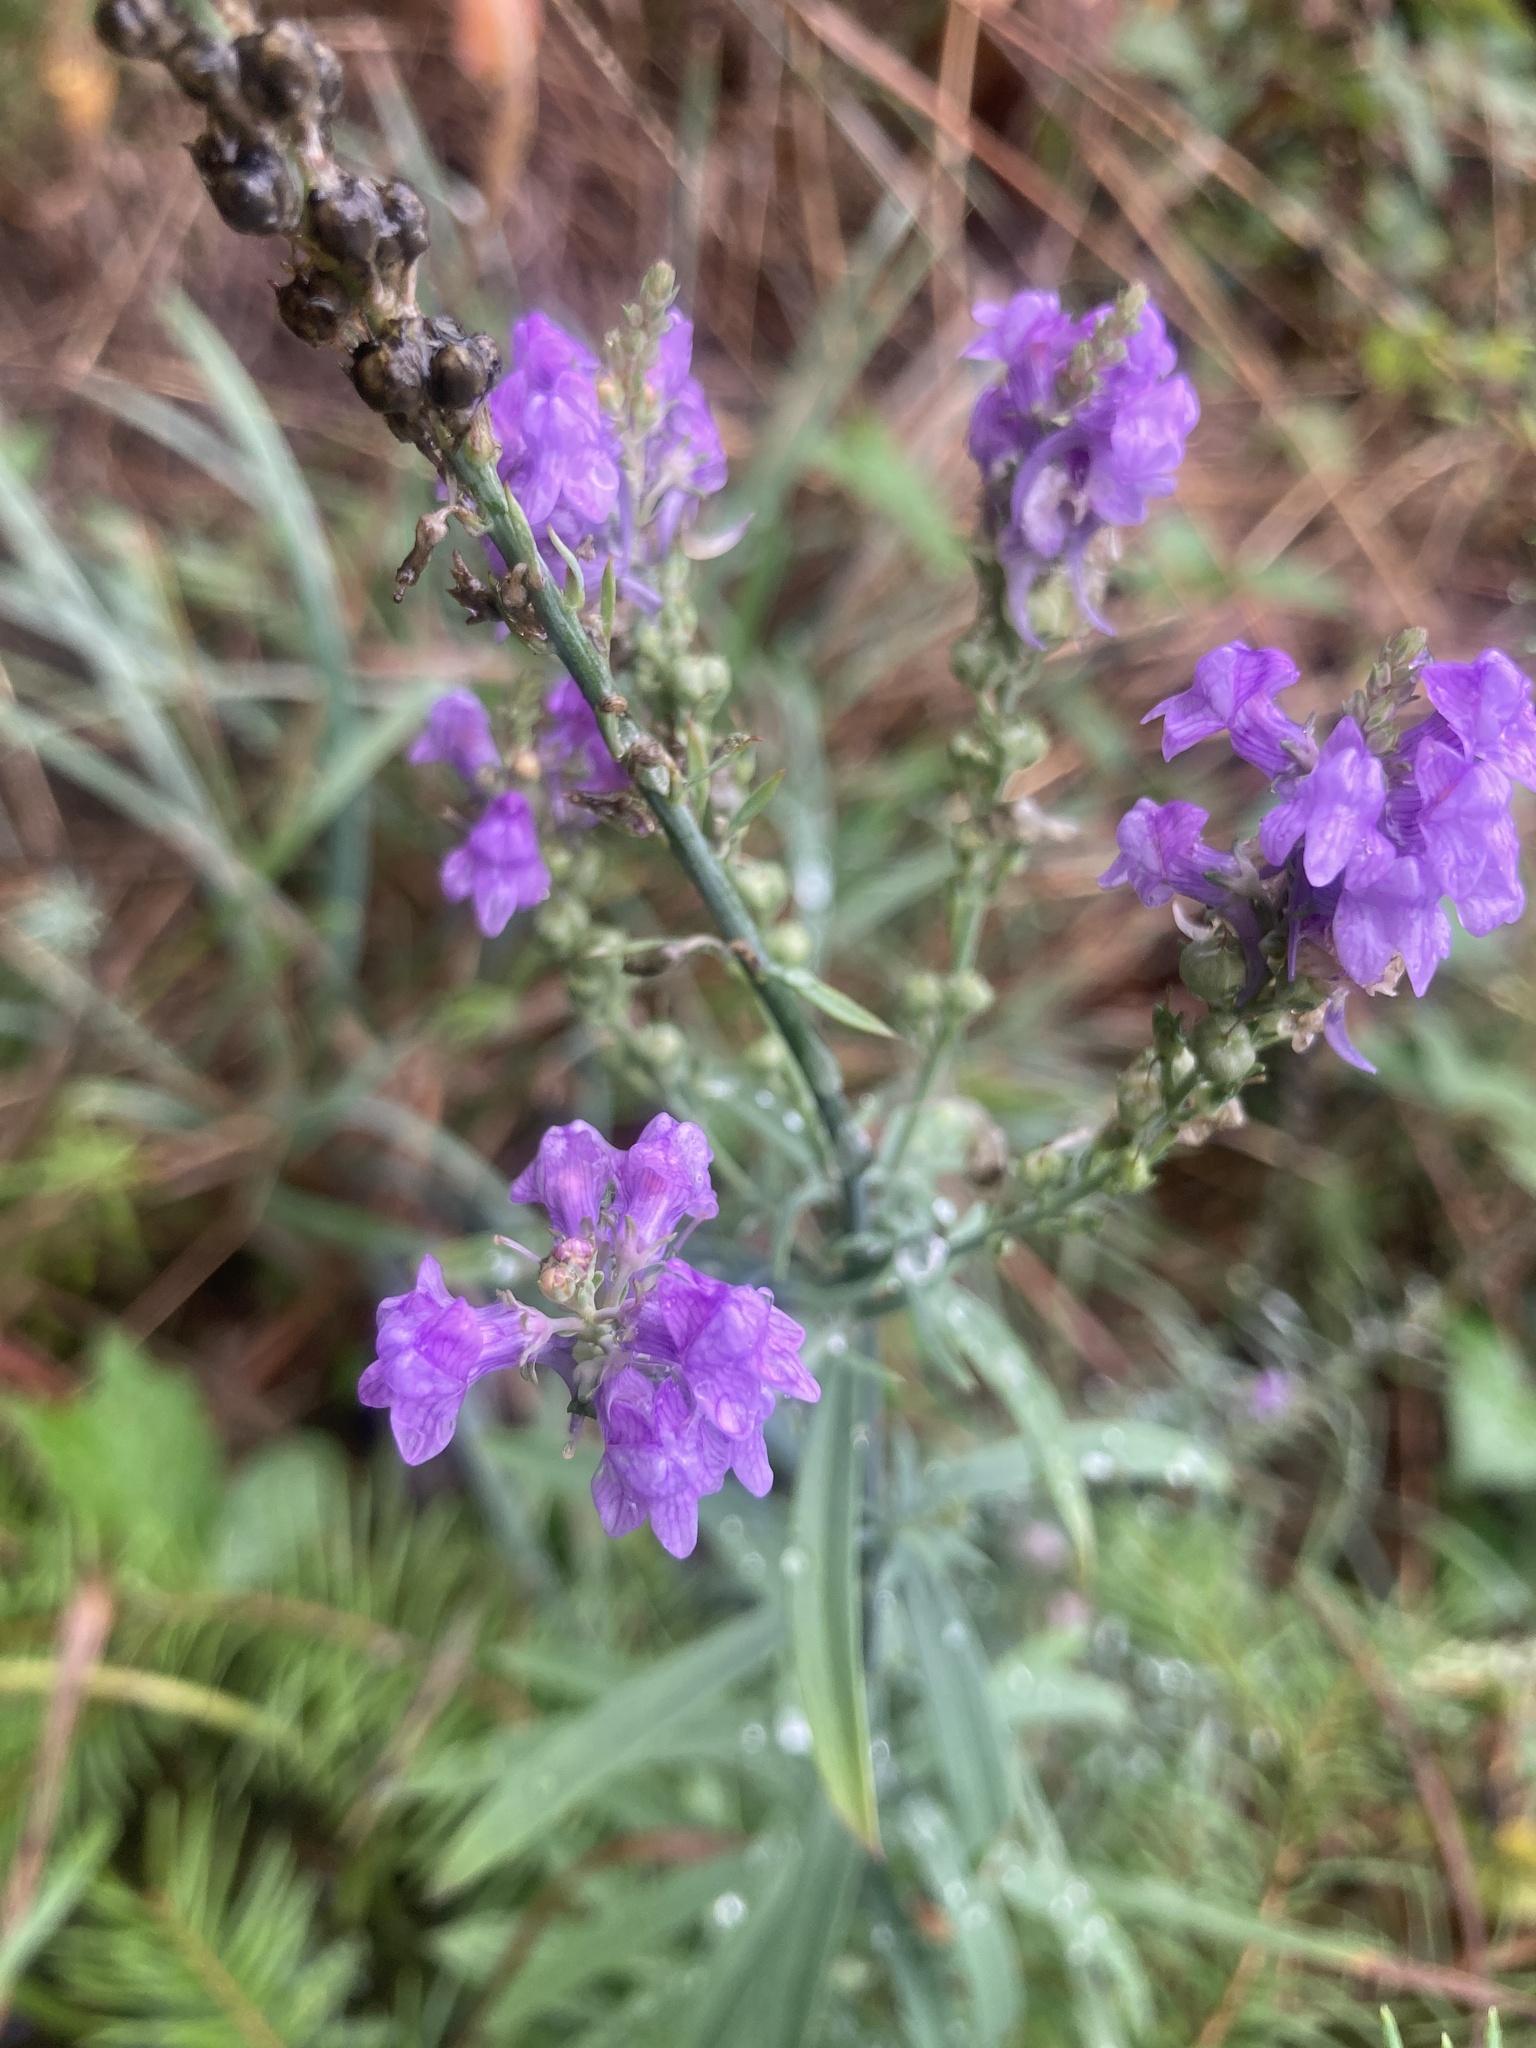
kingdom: Plantae
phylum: Tracheophyta
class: Magnoliopsida
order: Lamiales
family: Plantaginaceae
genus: Linaria
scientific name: Linaria purpurea
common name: Purple toadflax
